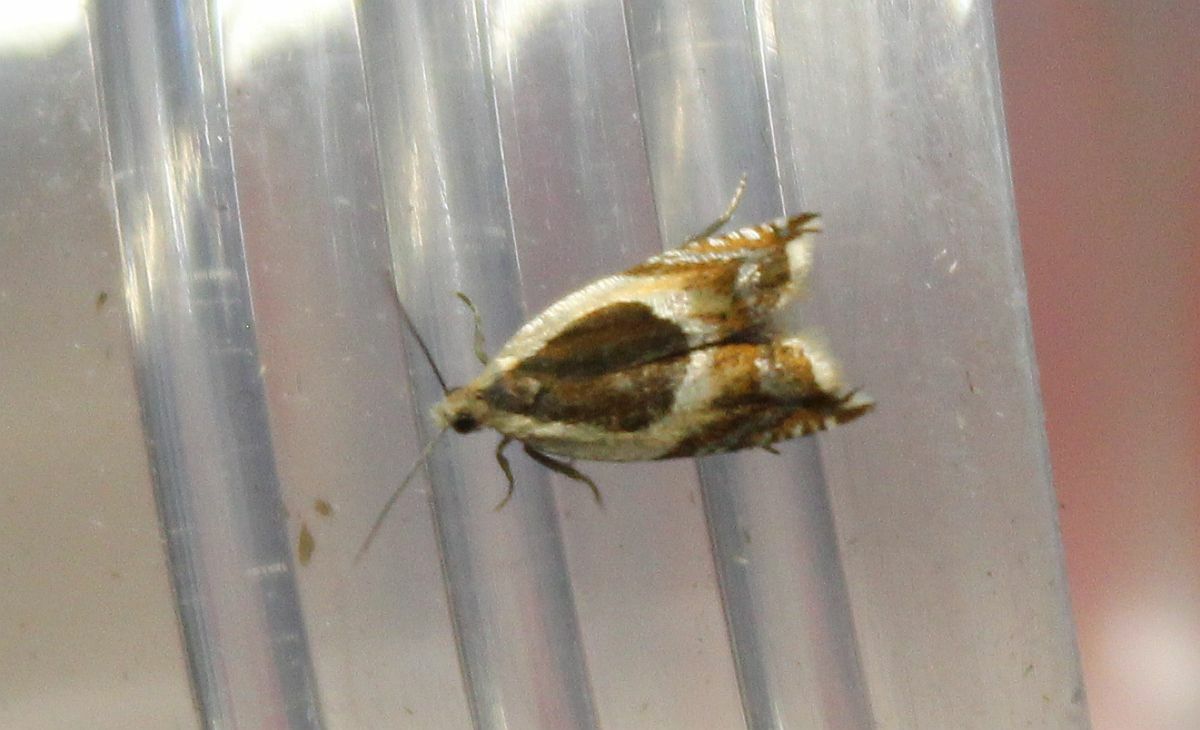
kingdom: Animalia
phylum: Arthropoda
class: Insecta
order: Lepidoptera
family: Tortricidae
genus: Ancylis
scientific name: Ancylis badiana
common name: Common roller
